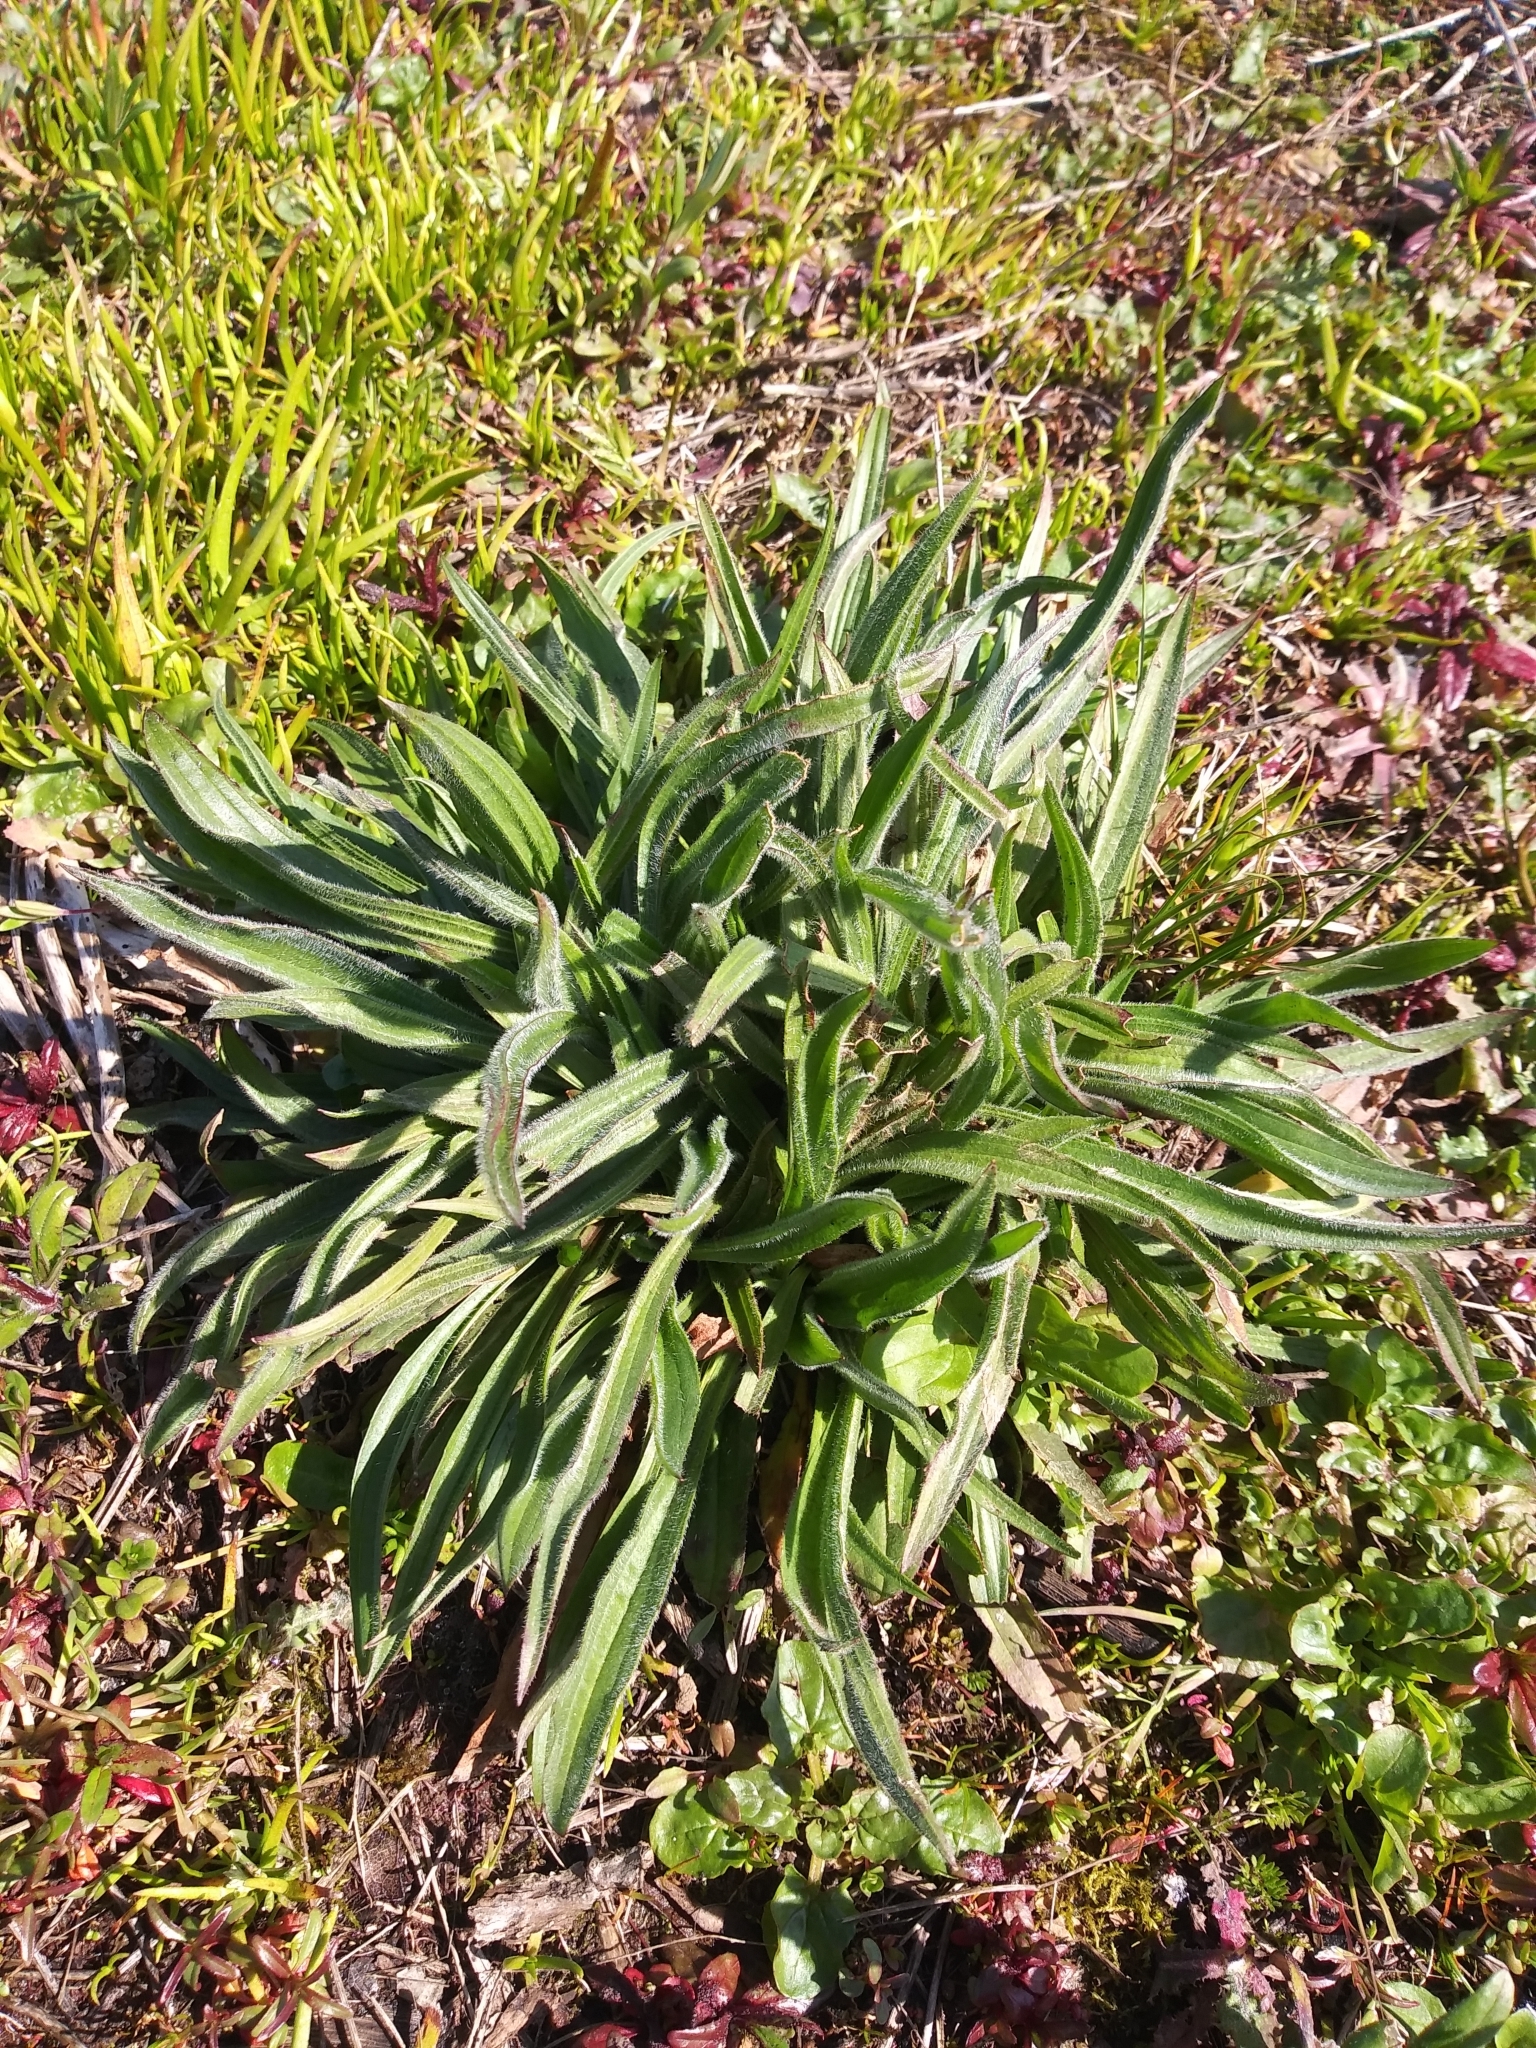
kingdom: Plantae
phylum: Tracheophyta
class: Magnoliopsida
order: Lamiales
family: Plantaginaceae
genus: Plantago
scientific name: Plantago lanceolata
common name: Ribwort plantain
